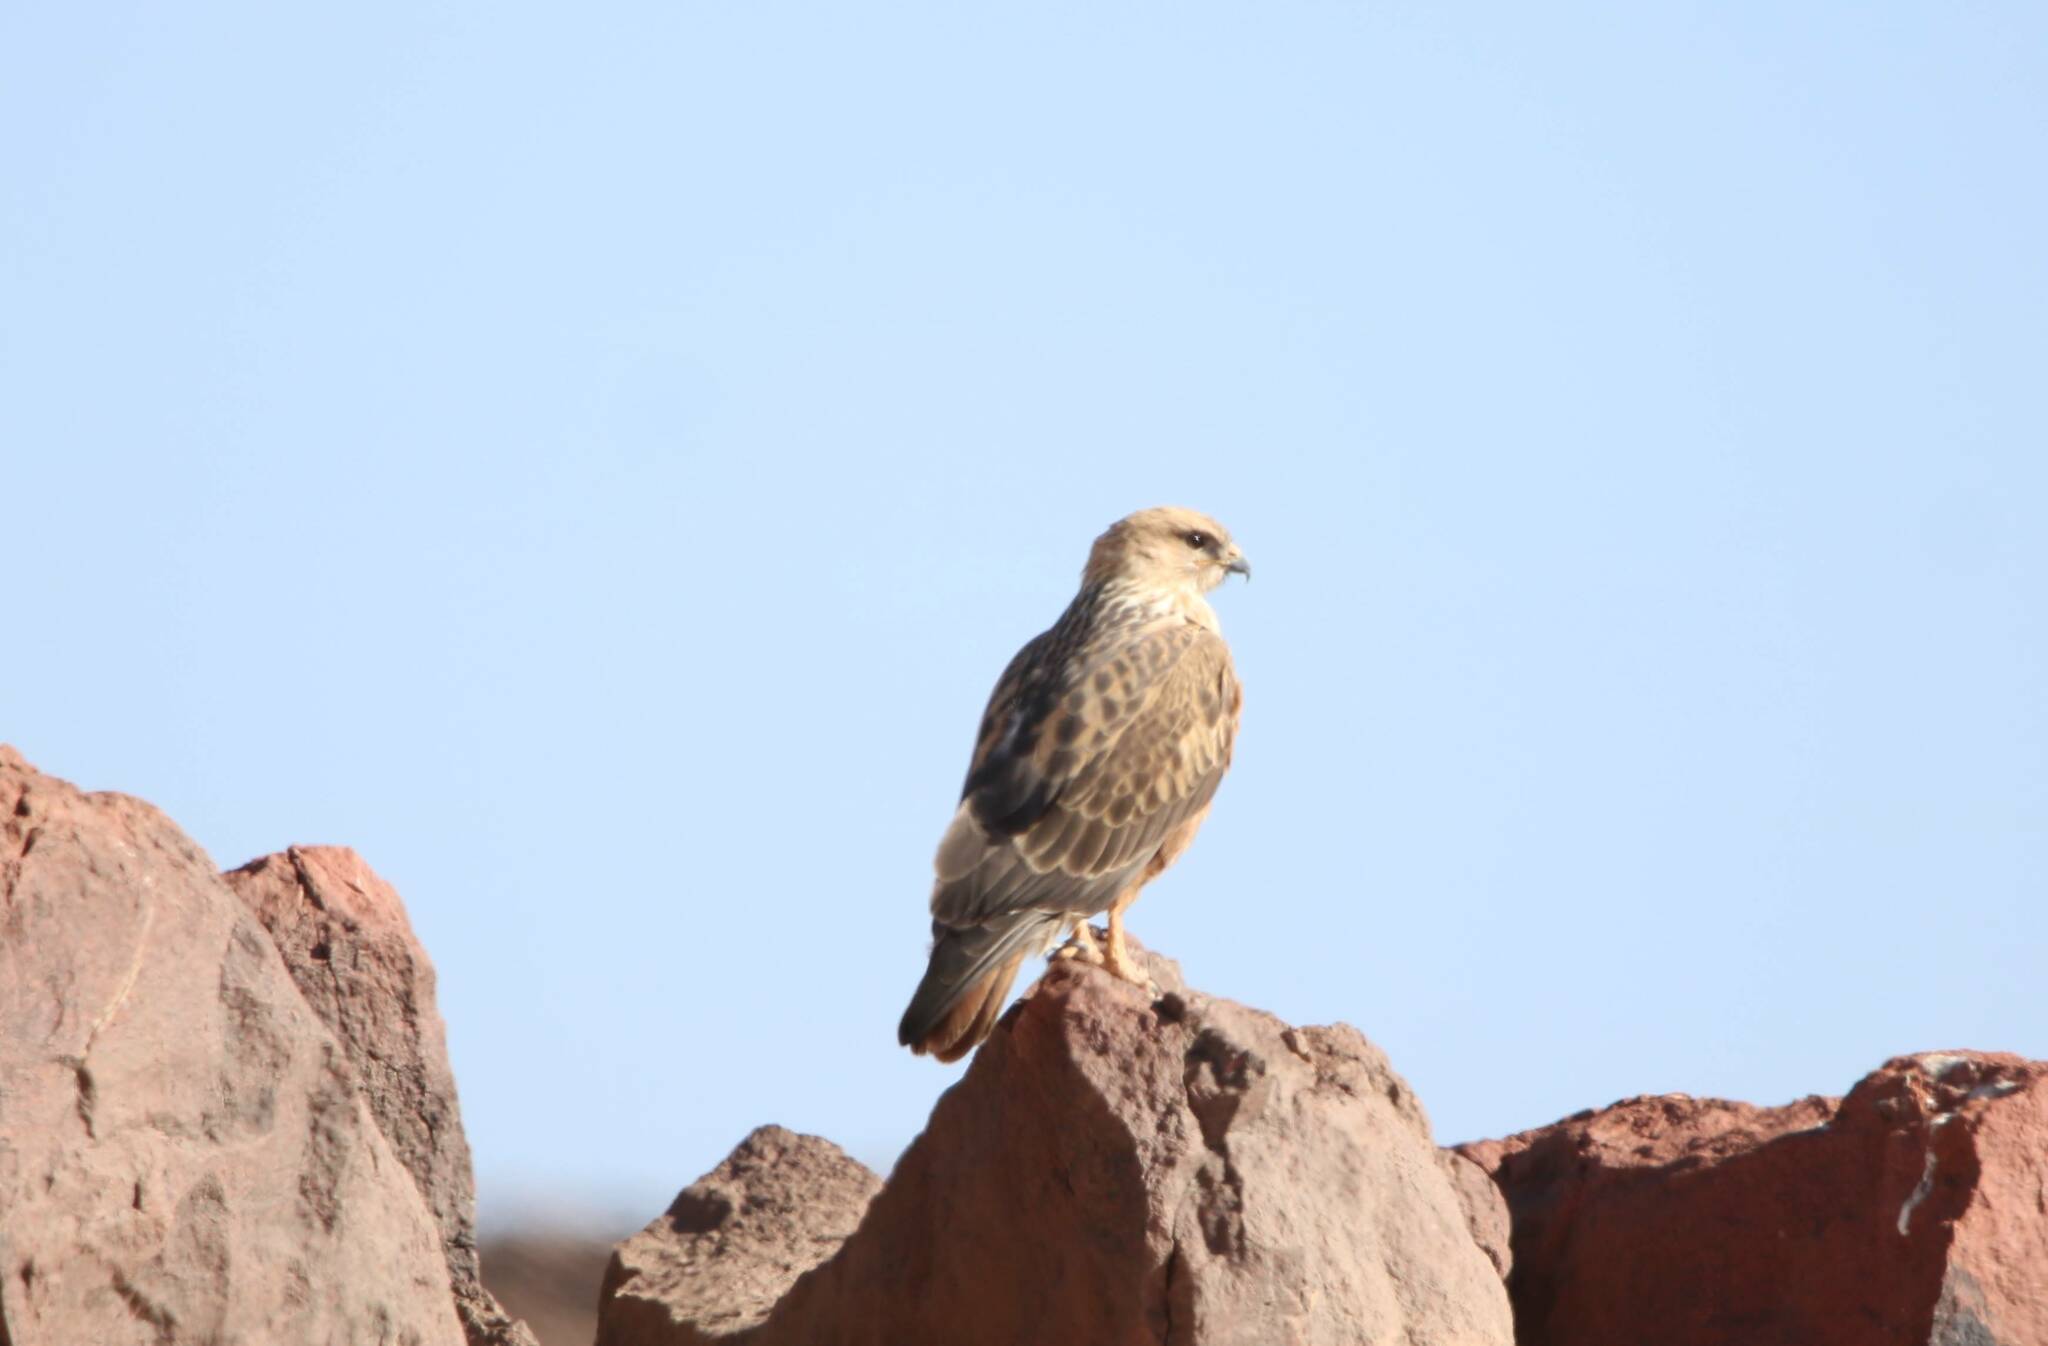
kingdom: Animalia
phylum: Chordata
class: Aves
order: Accipitriformes
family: Accipitridae
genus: Buteo
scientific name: Buteo rufinus
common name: Long-legged buzzard
